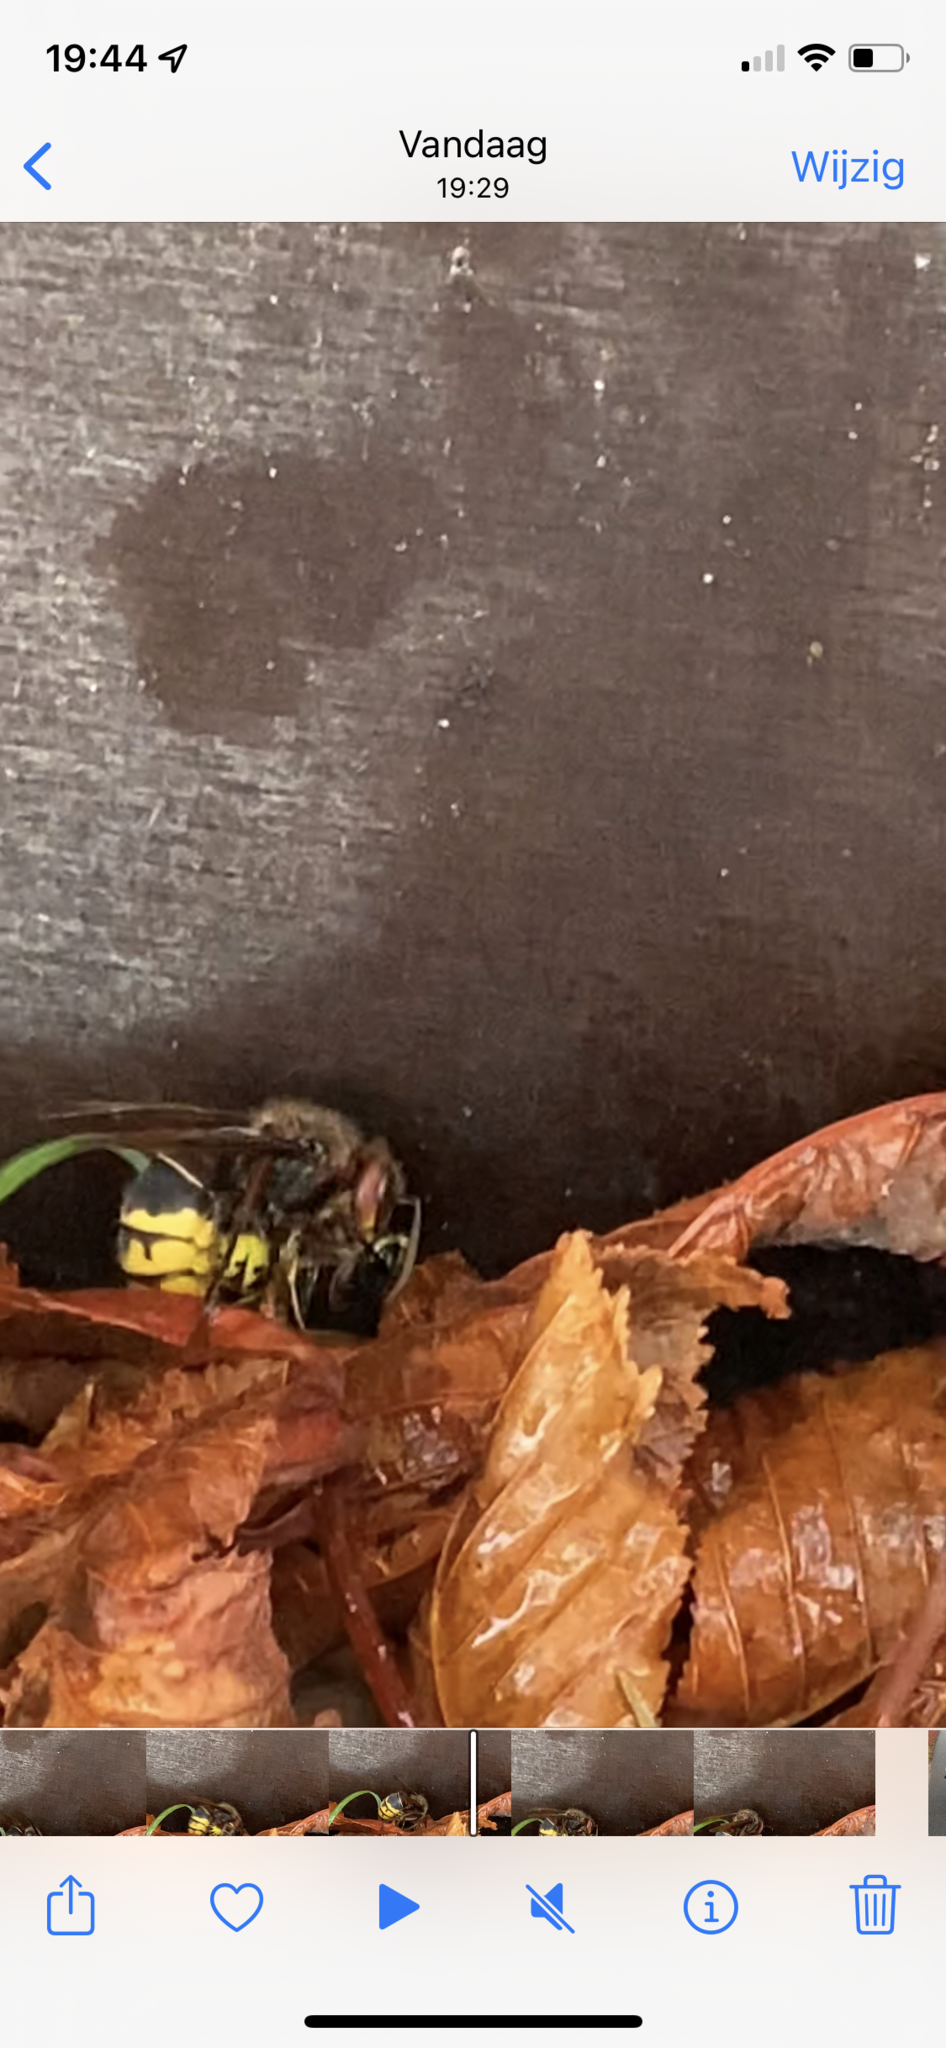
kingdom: Animalia
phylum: Arthropoda
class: Insecta
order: Hymenoptera
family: Vespidae
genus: Vespa
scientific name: Vespa crabro
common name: Hornet
